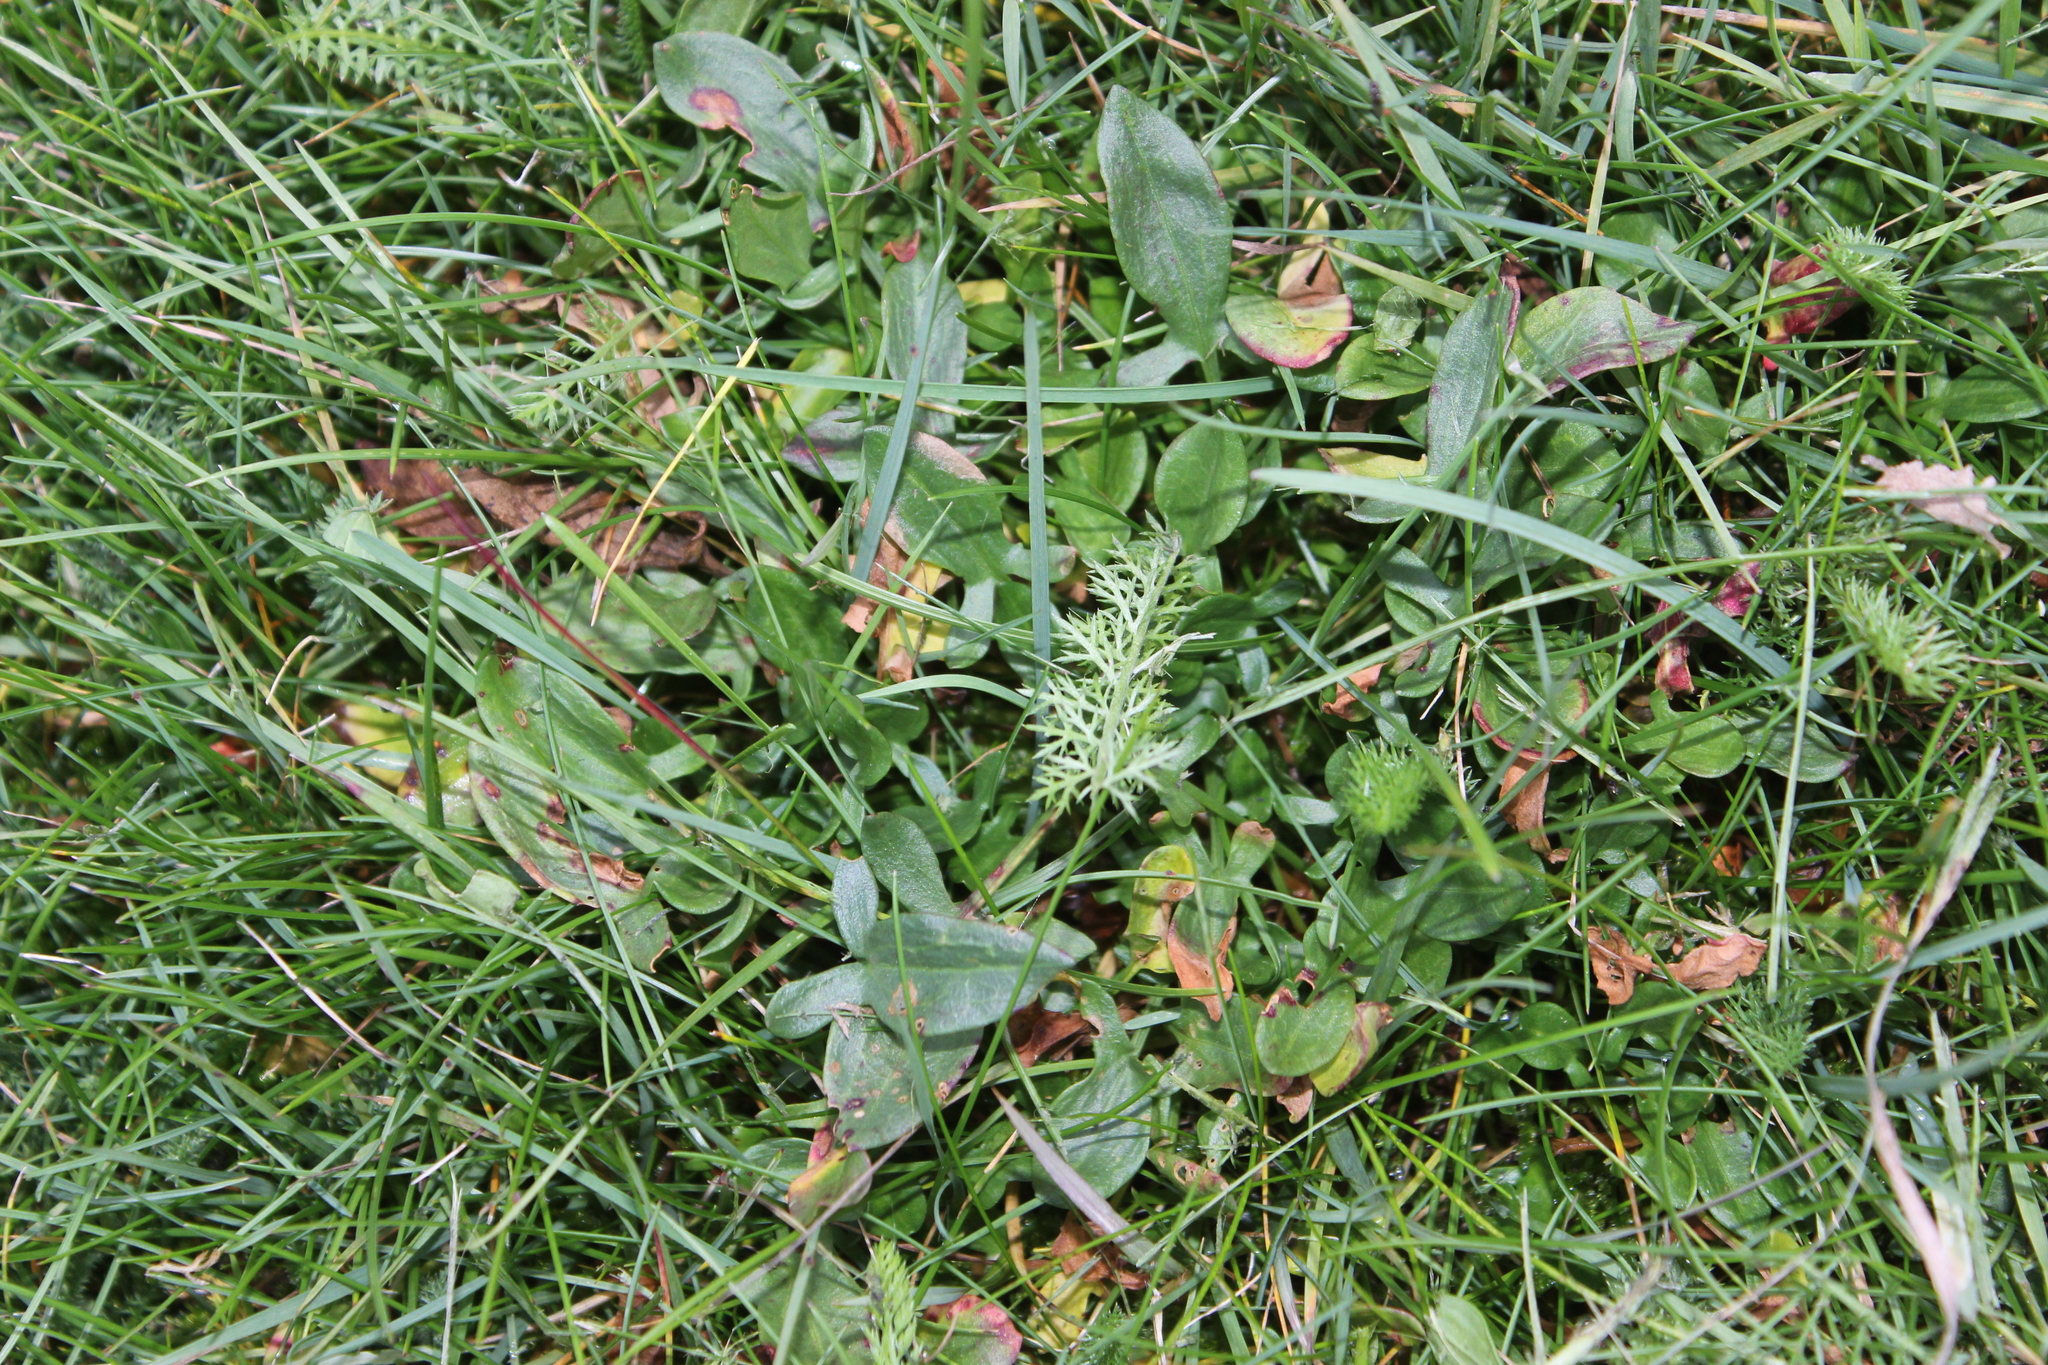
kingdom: Plantae
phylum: Tracheophyta
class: Magnoliopsida
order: Caryophyllales
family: Polygonaceae
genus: Rumex
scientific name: Rumex acetosella
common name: Common sheep sorrel
